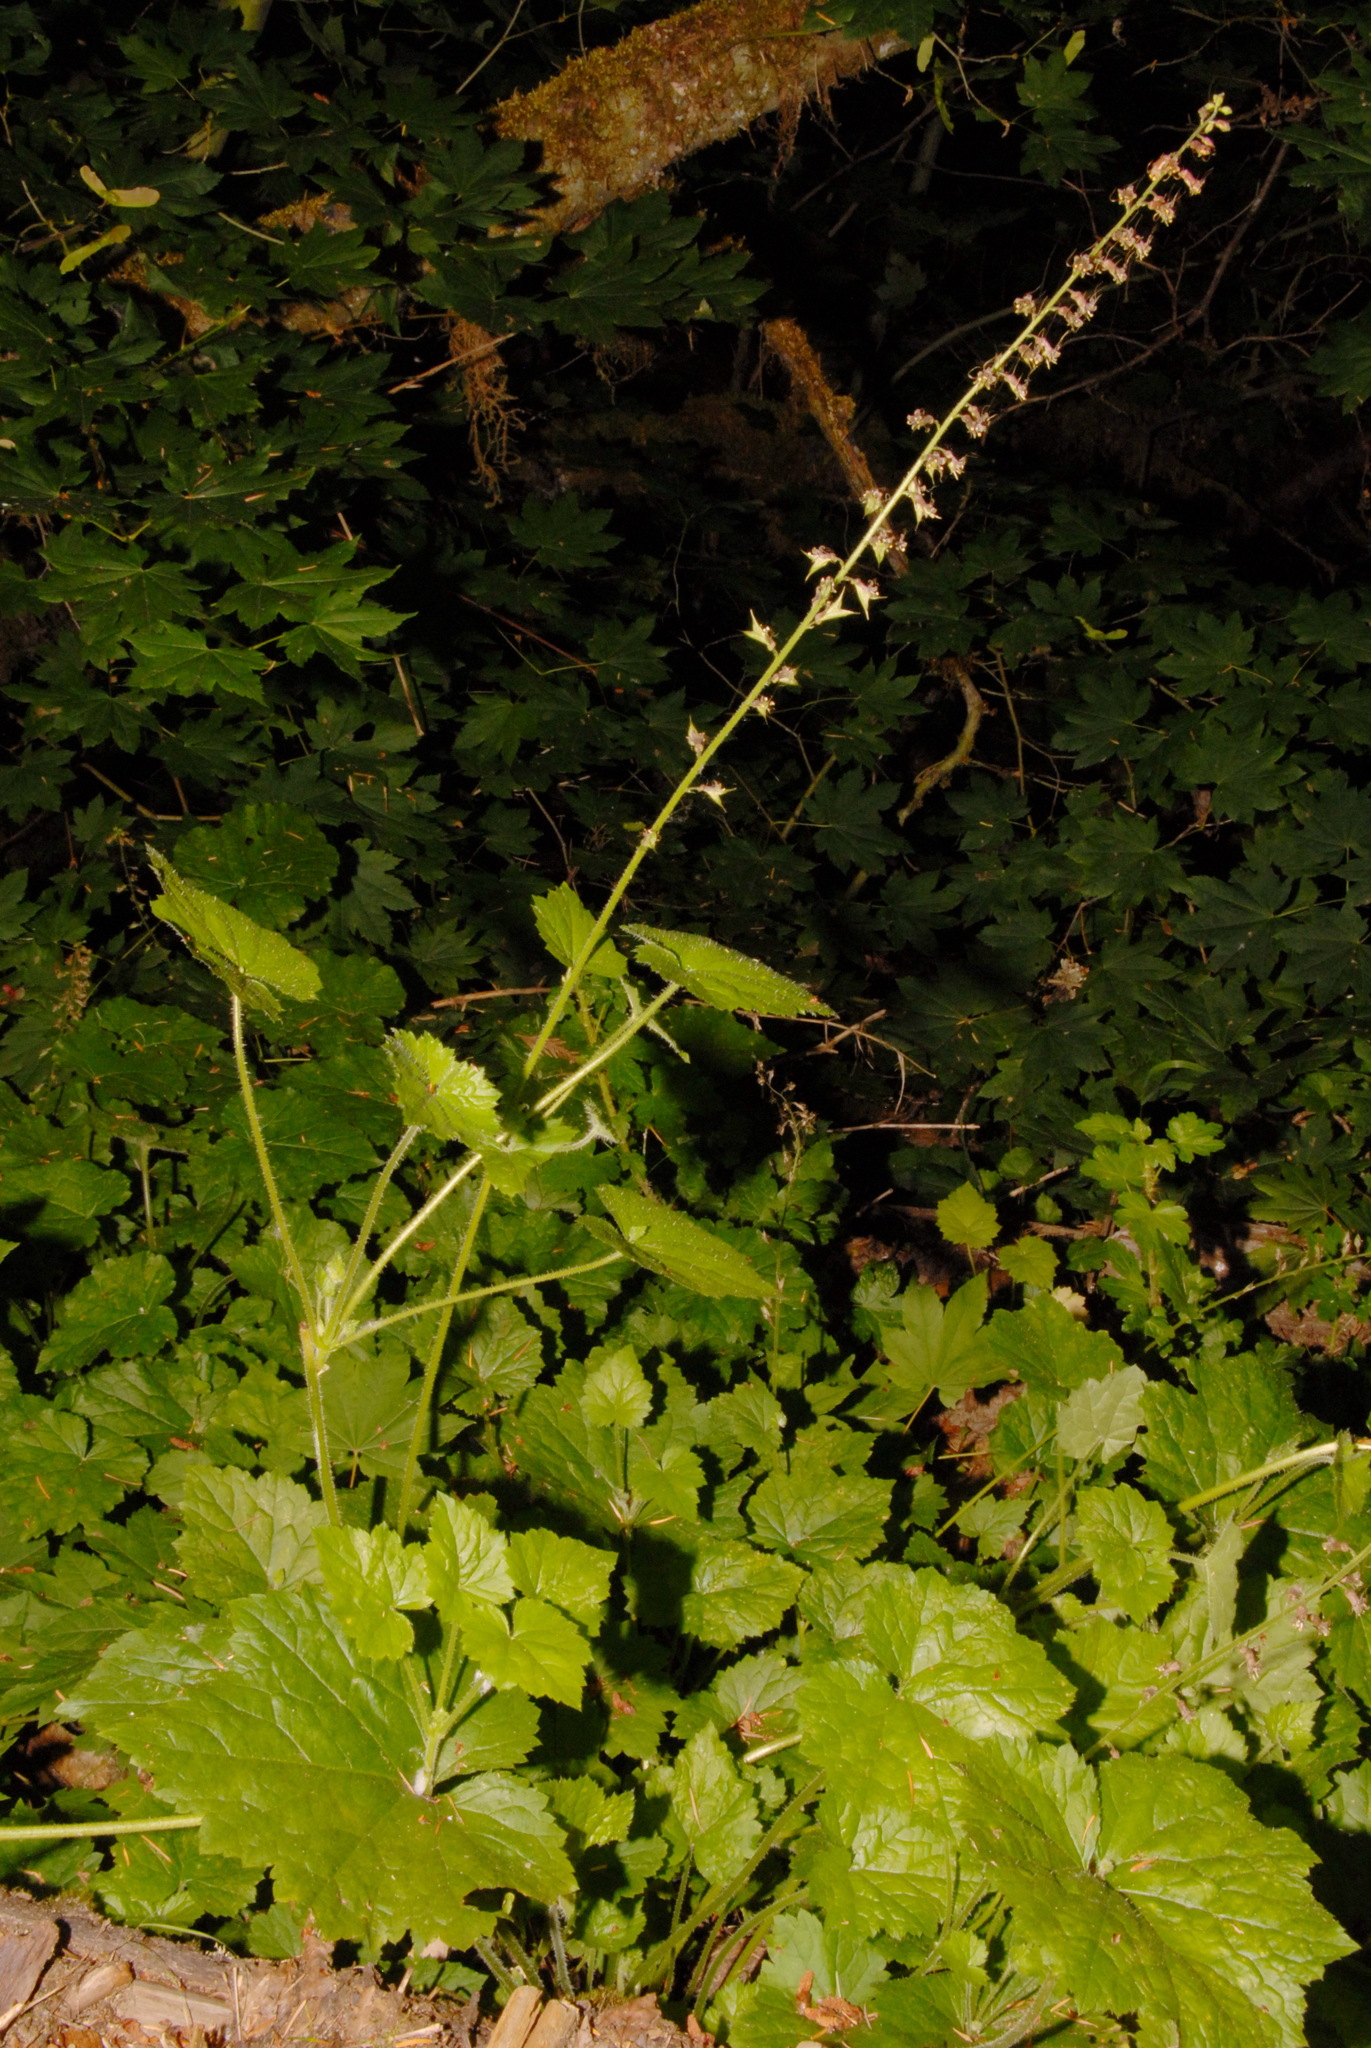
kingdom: Plantae
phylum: Tracheophyta
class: Magnoliopsida
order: Saxifragales
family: Saxifragaceae
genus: Tolmiea
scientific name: Tolmiea menziesii
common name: Pick-a-back-plant
